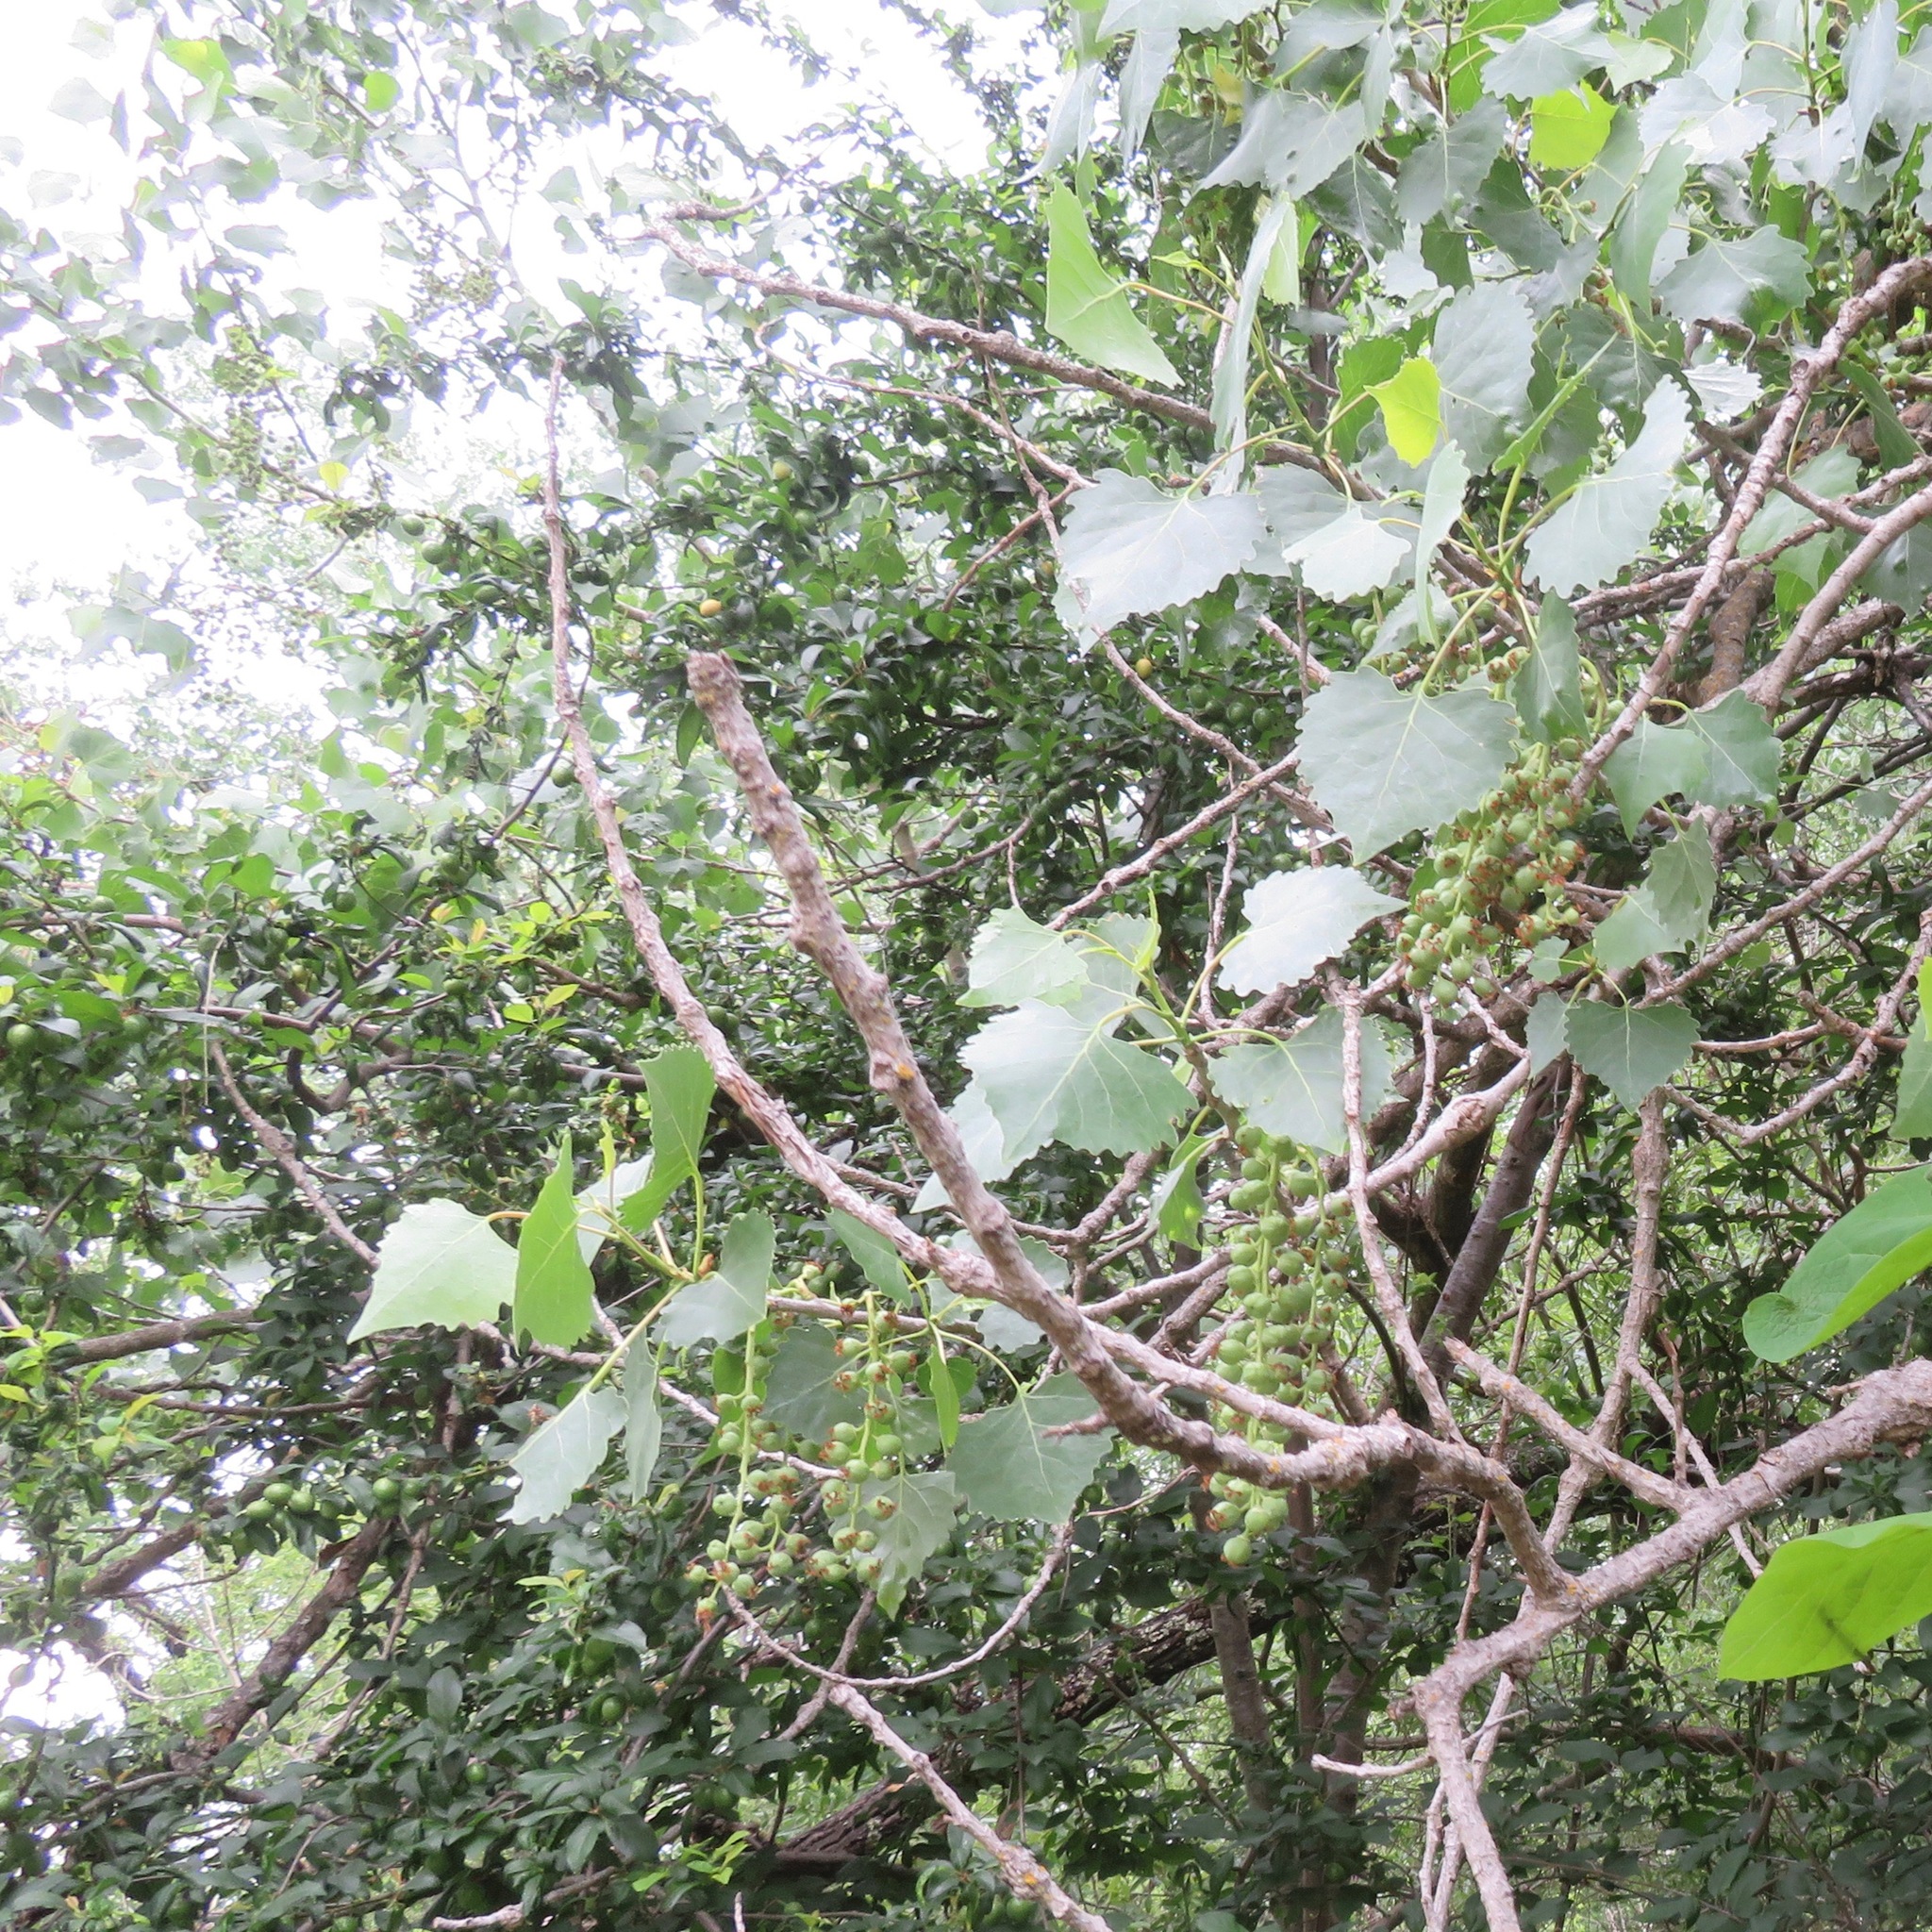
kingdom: Plantae
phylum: Tracheophyta
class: Magnoliopsida
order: Vitales
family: Vitaceae
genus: Vitis
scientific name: Vitis californica
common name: California wild grape
